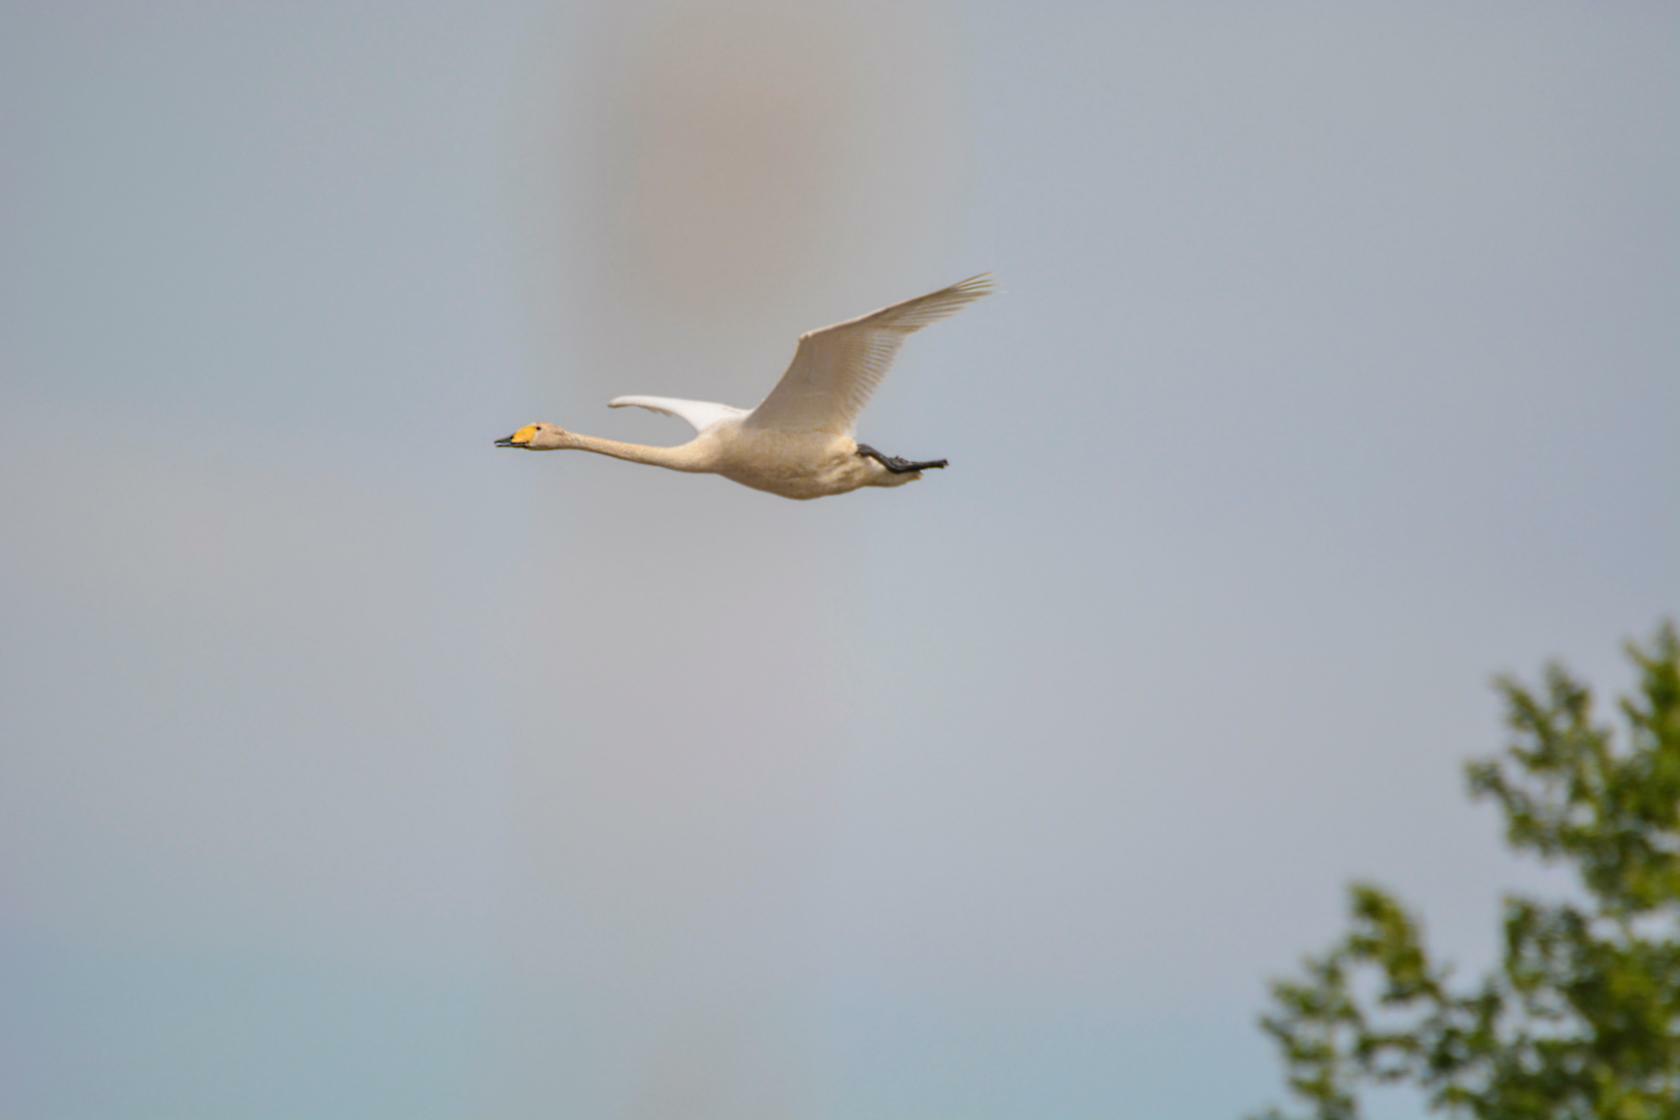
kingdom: Animalia
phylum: Chordata
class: Aves
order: Anseriformes
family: Anatidae
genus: Cygnus
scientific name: Cygnus cygnus
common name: Whooper swan
